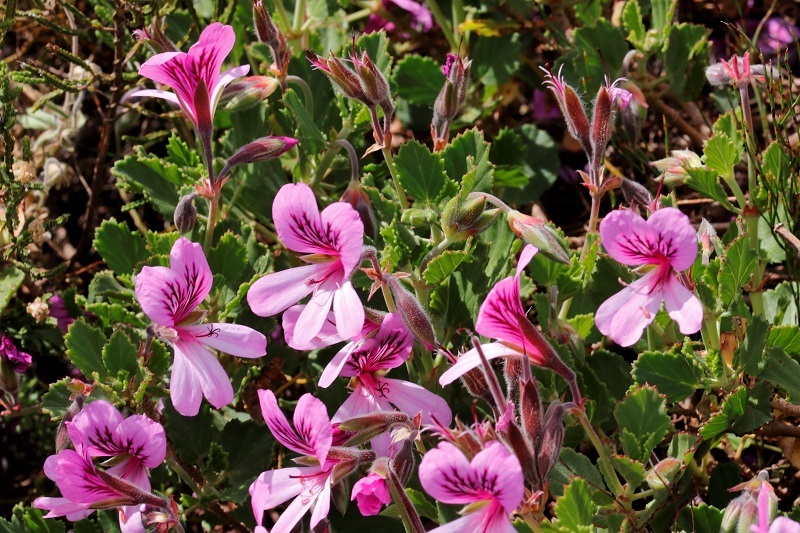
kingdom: Plantae
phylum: Tracheophyta
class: Magnoliopsida
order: Geraniales
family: Geraniaceae
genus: Pelargonium
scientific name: Pelargonium betulinum
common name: Birch-leaf pelargonium
